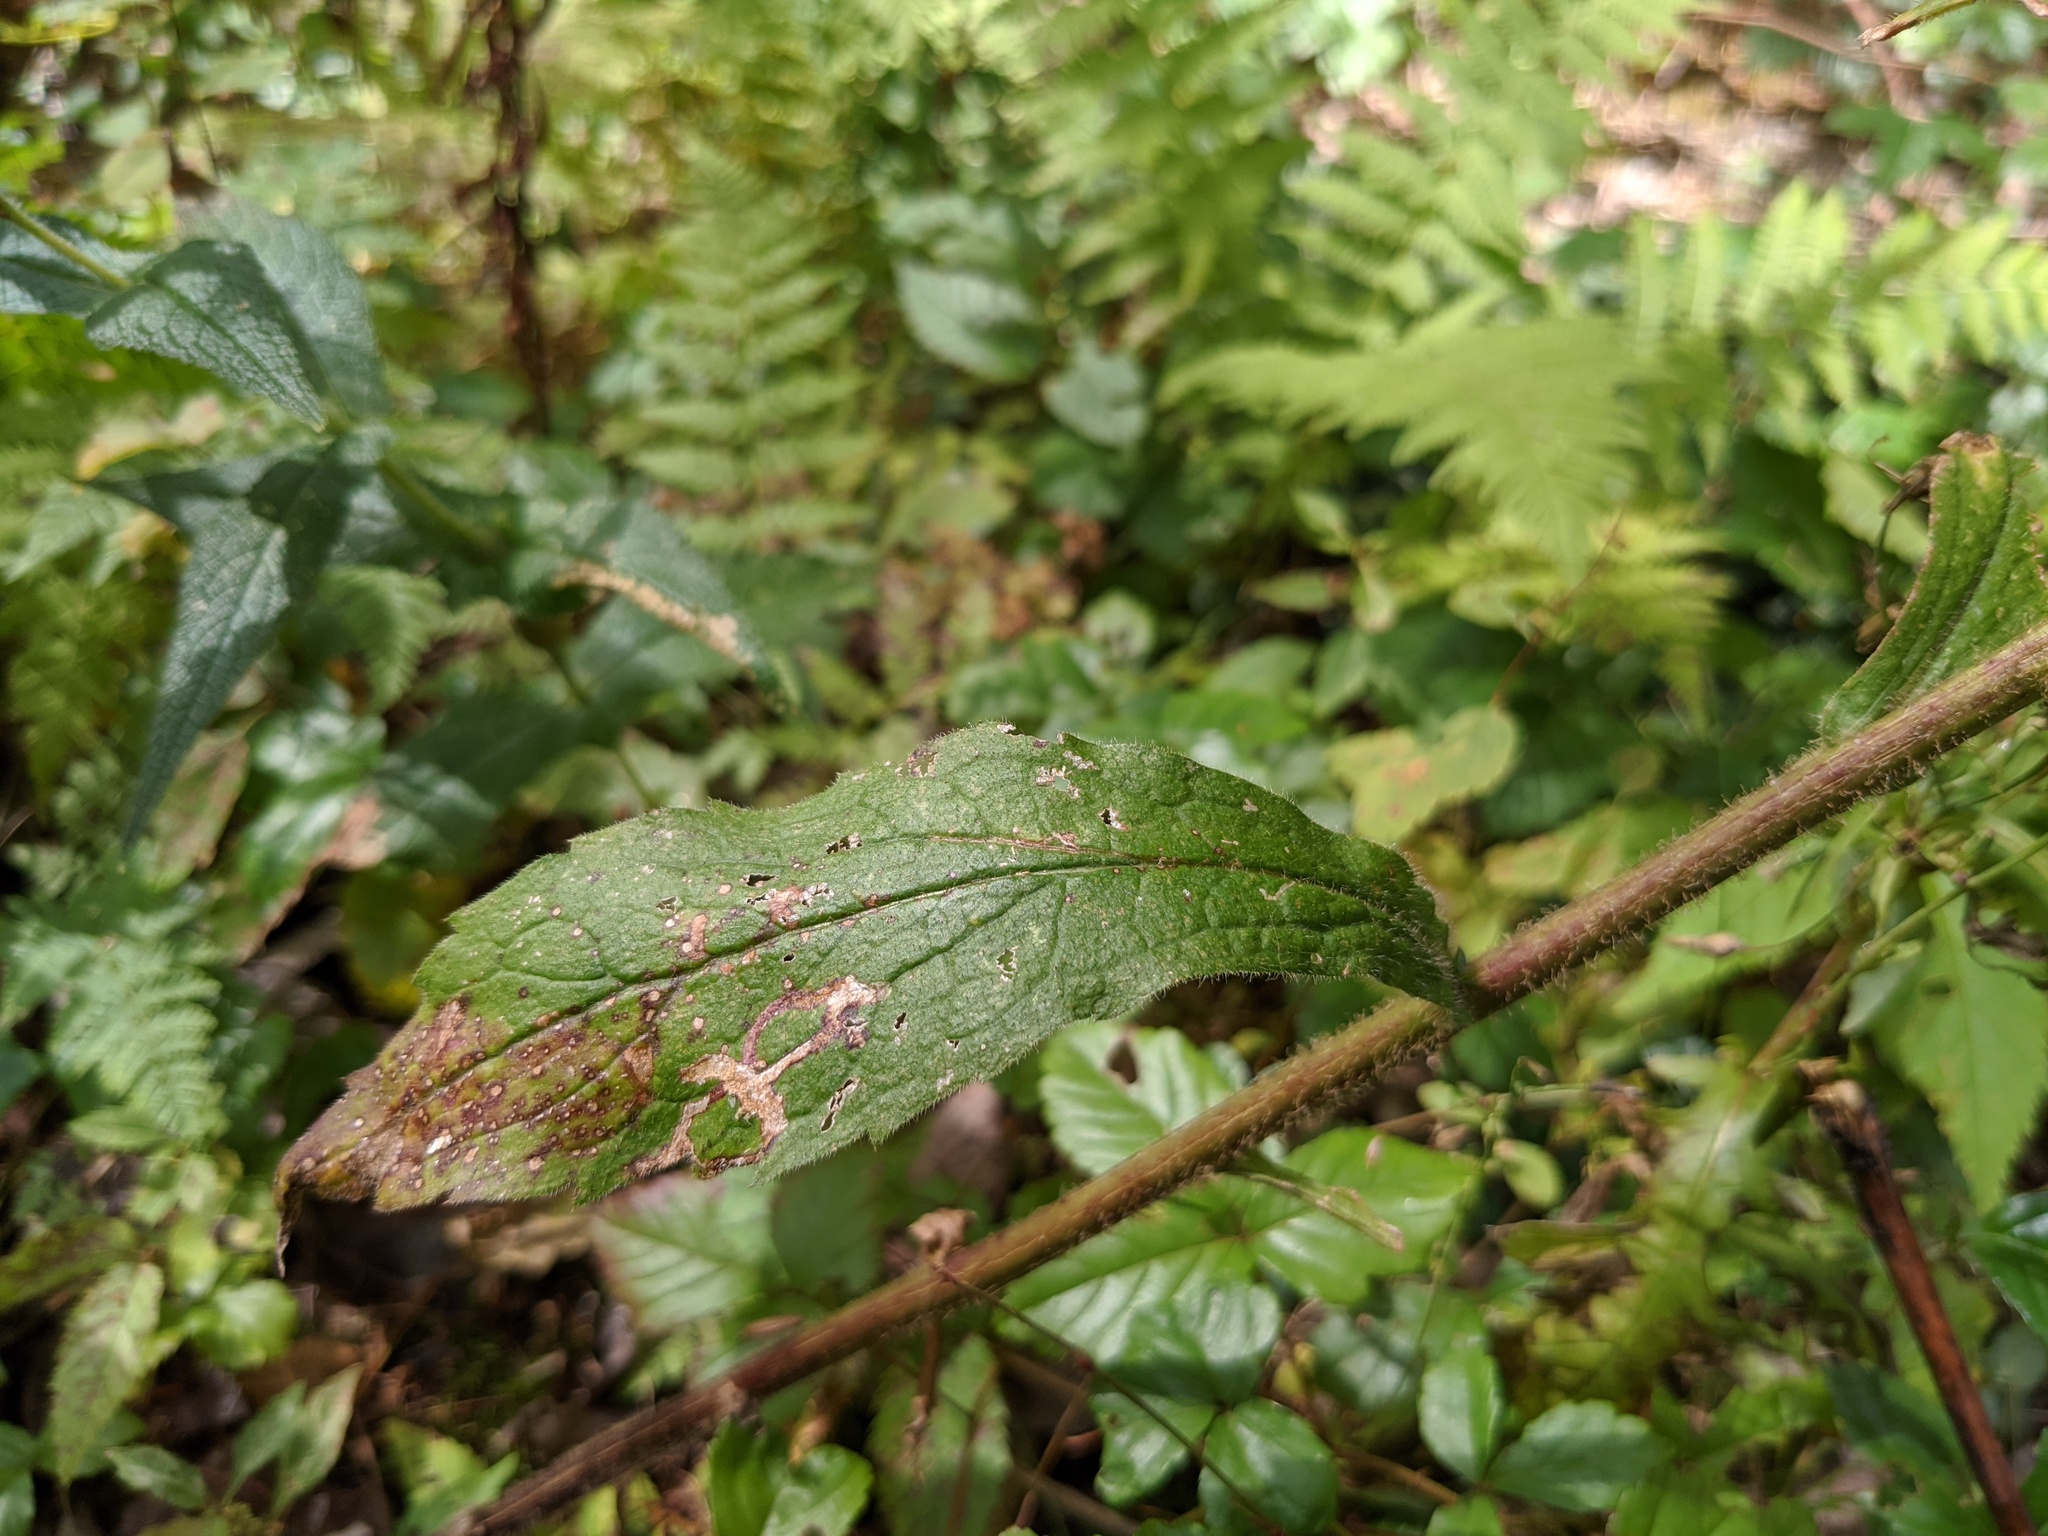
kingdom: Plantae
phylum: Tracheophyta
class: Magnoliopsida
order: Asterales
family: Asteraceae
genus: Solidago
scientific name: Solidago rugosa
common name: Rough-stemmed goldenrod
